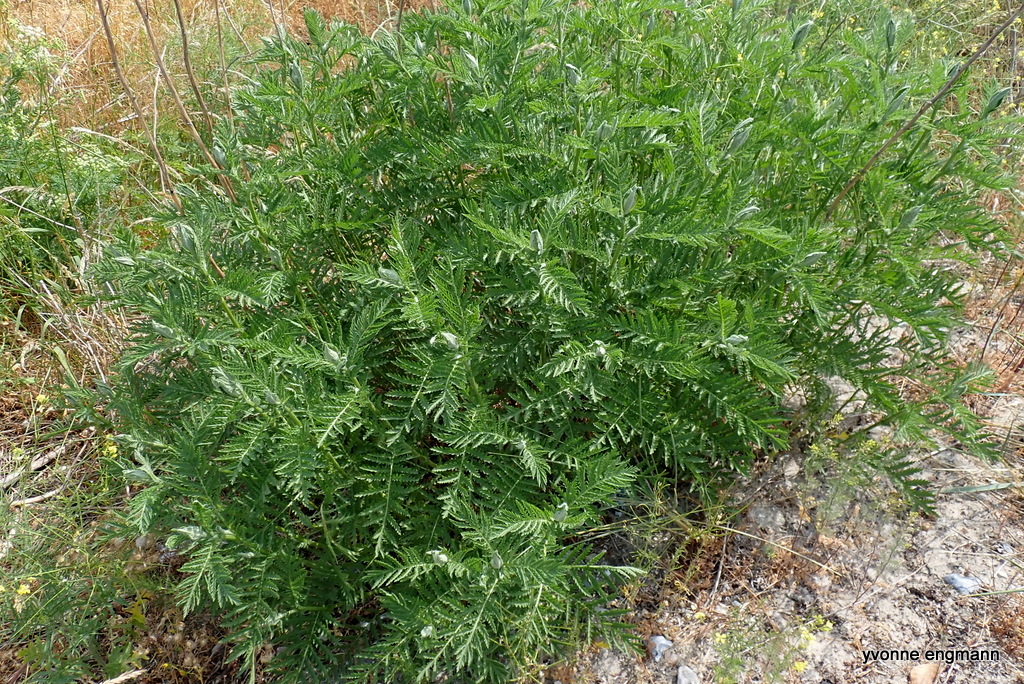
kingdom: Plantae
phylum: Tracheophyta
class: Magnoliopsida
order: Asterales
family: Asteraceae
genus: Tanacetum
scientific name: Tanacetum vulgare
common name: Common tansy
